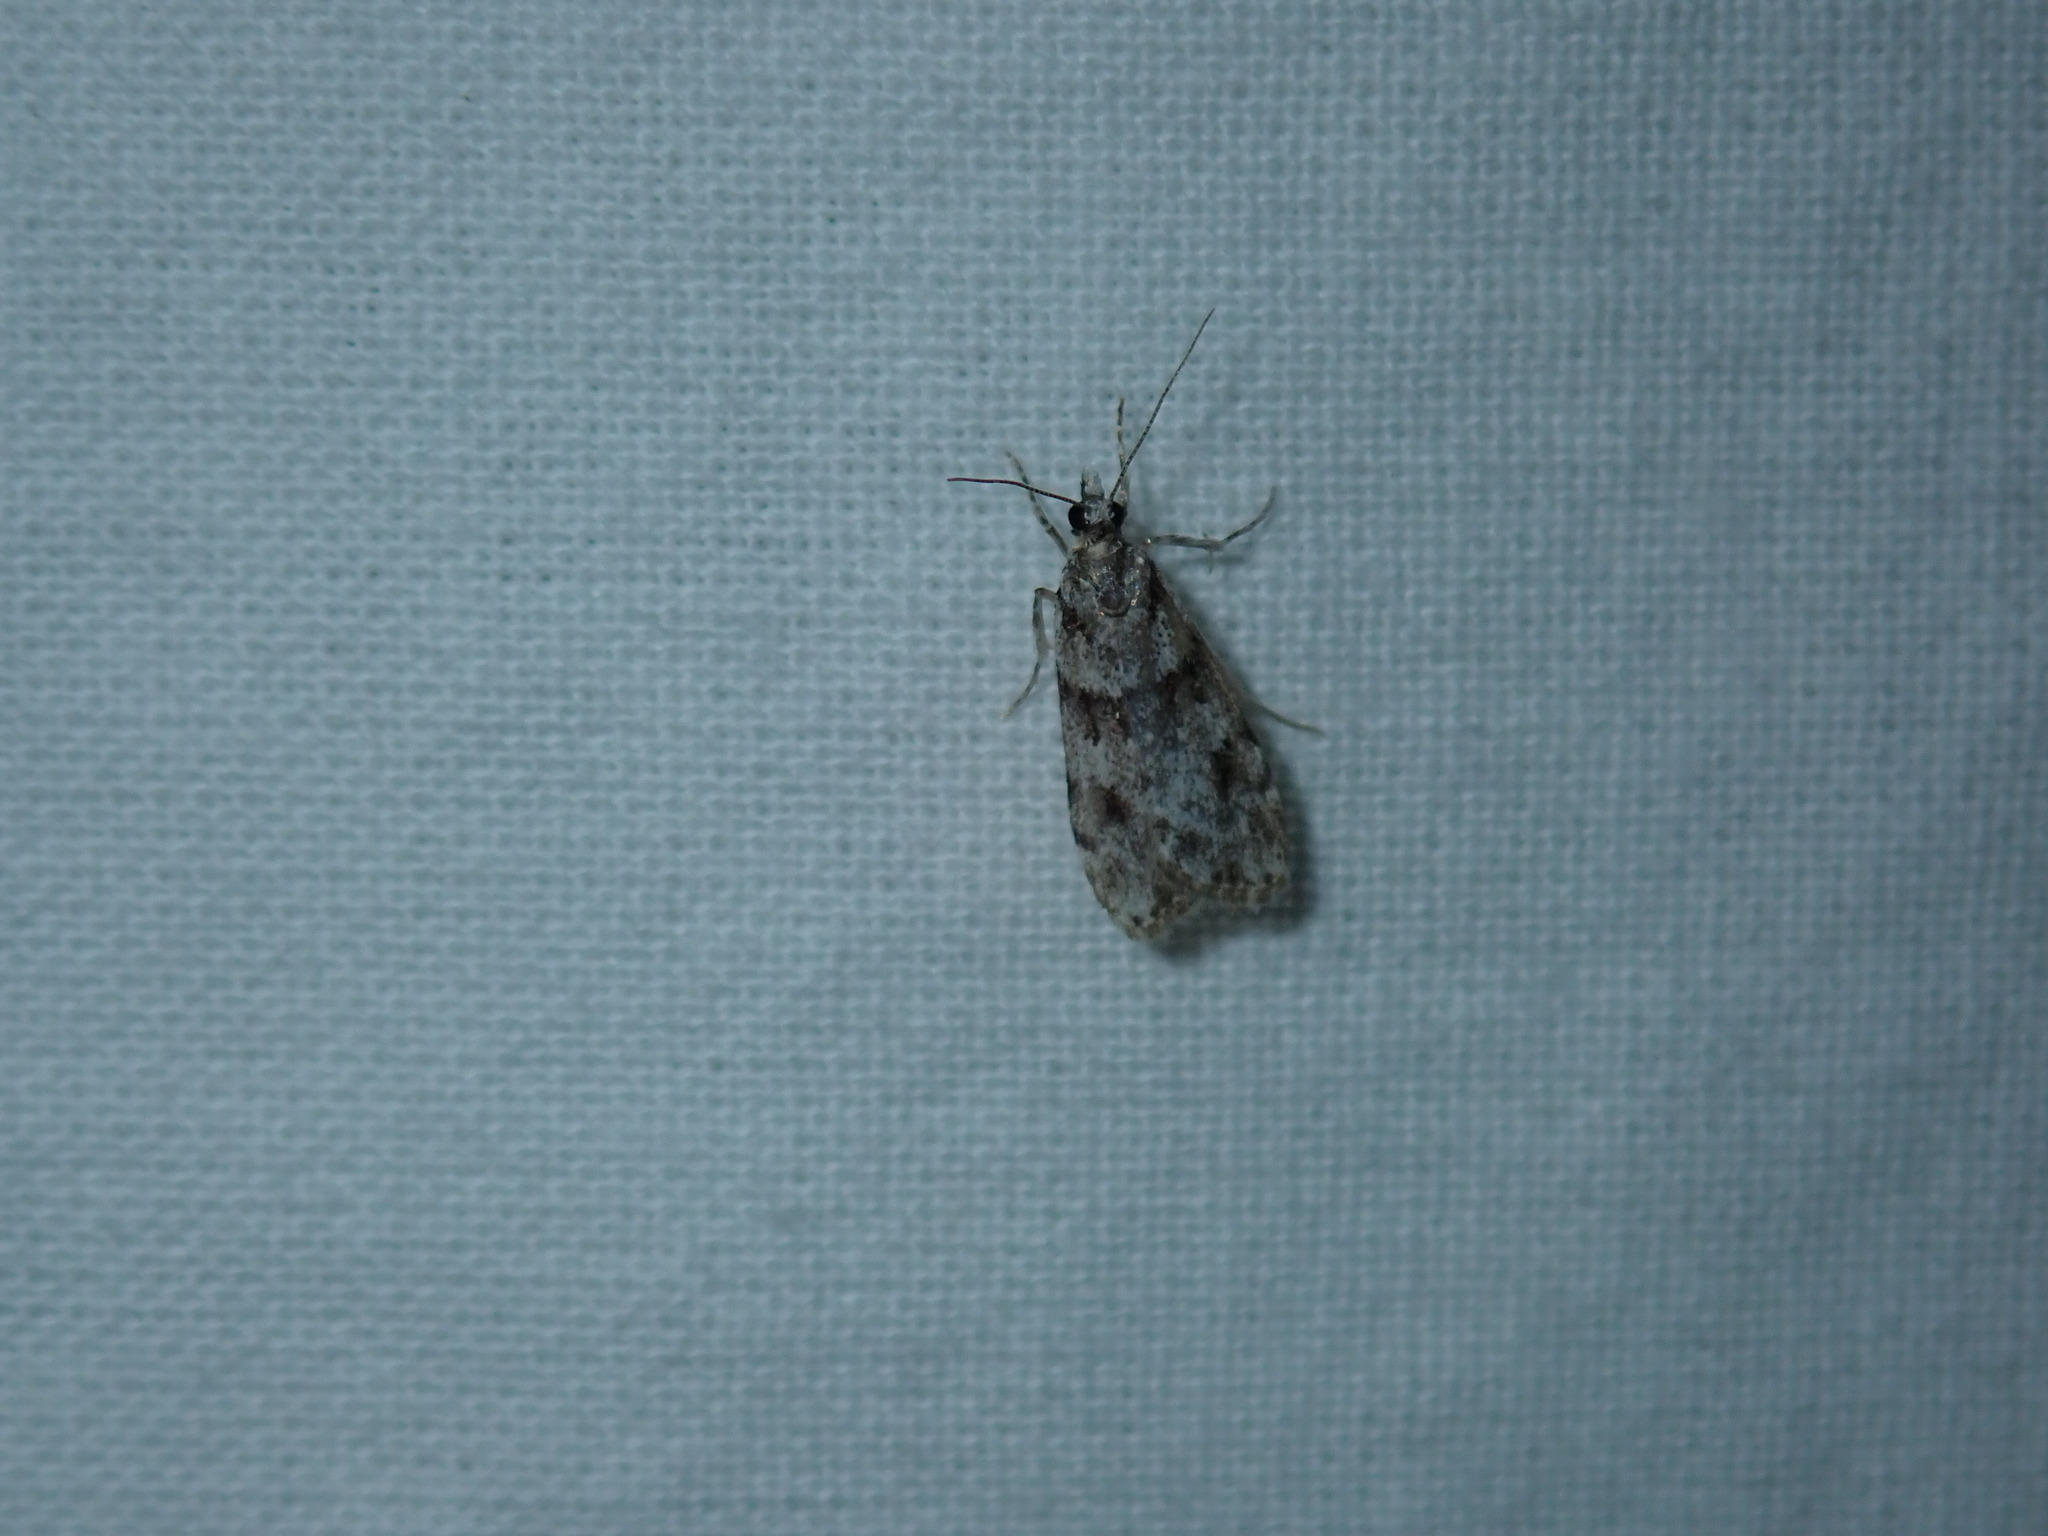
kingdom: Animalia
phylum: Arthropoda
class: Insecta
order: Lepidoptera
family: Crambidae
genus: Scoparia
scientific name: Scoparia biplagialis
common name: Double-striped scoparia moth
